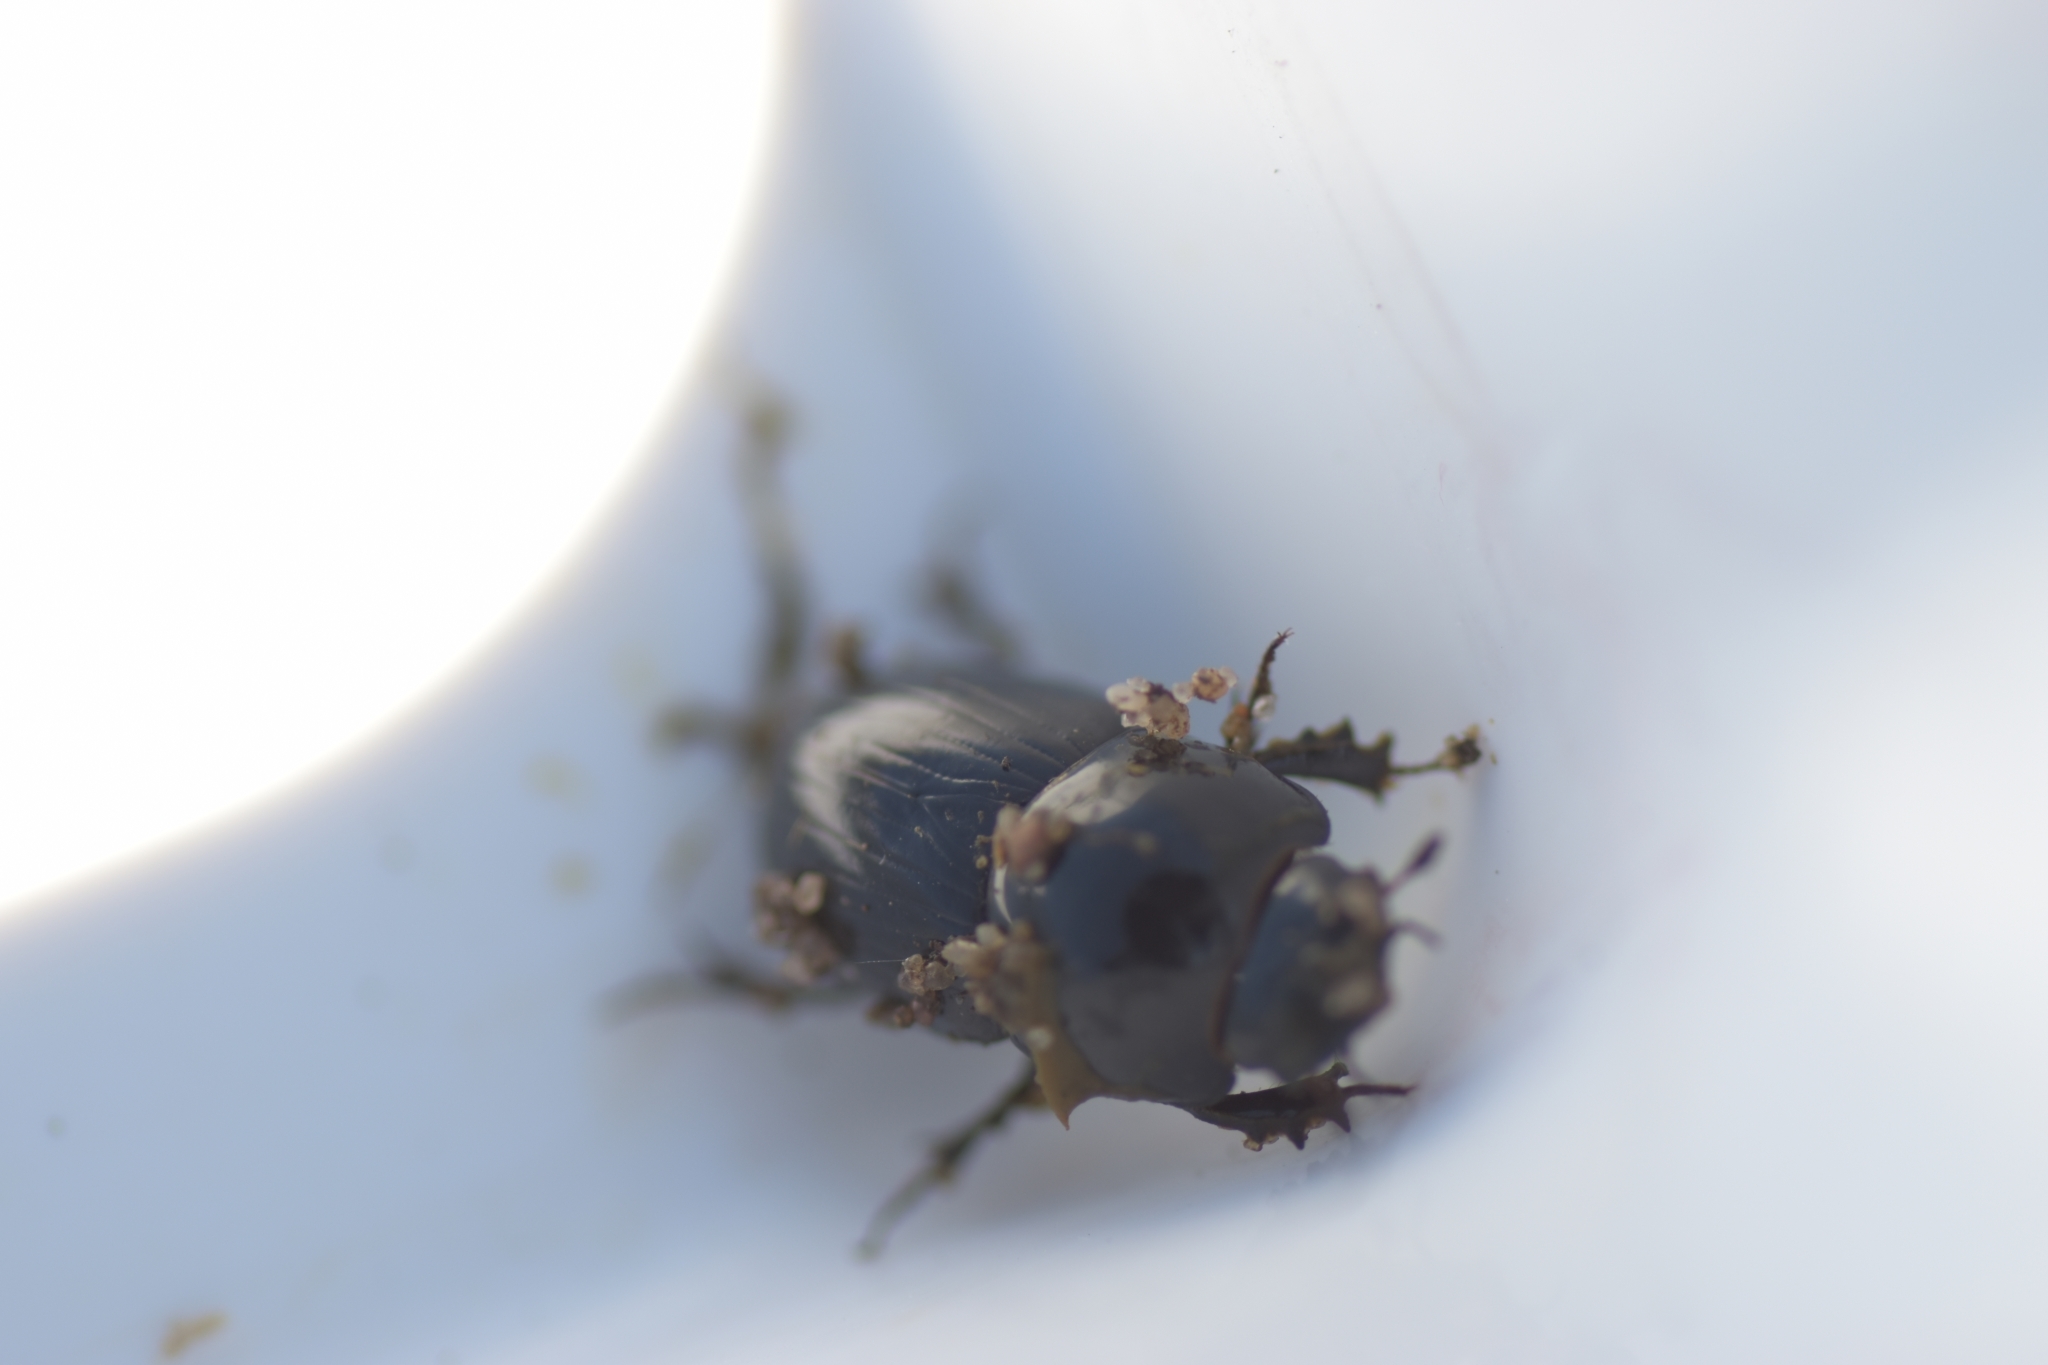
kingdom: Animalia
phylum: Arthropoda
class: Insecta
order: Coleoptera
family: Scarabaeidae
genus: Teuchestes
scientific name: Teuchestes fossor
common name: Digger small dung beetle
